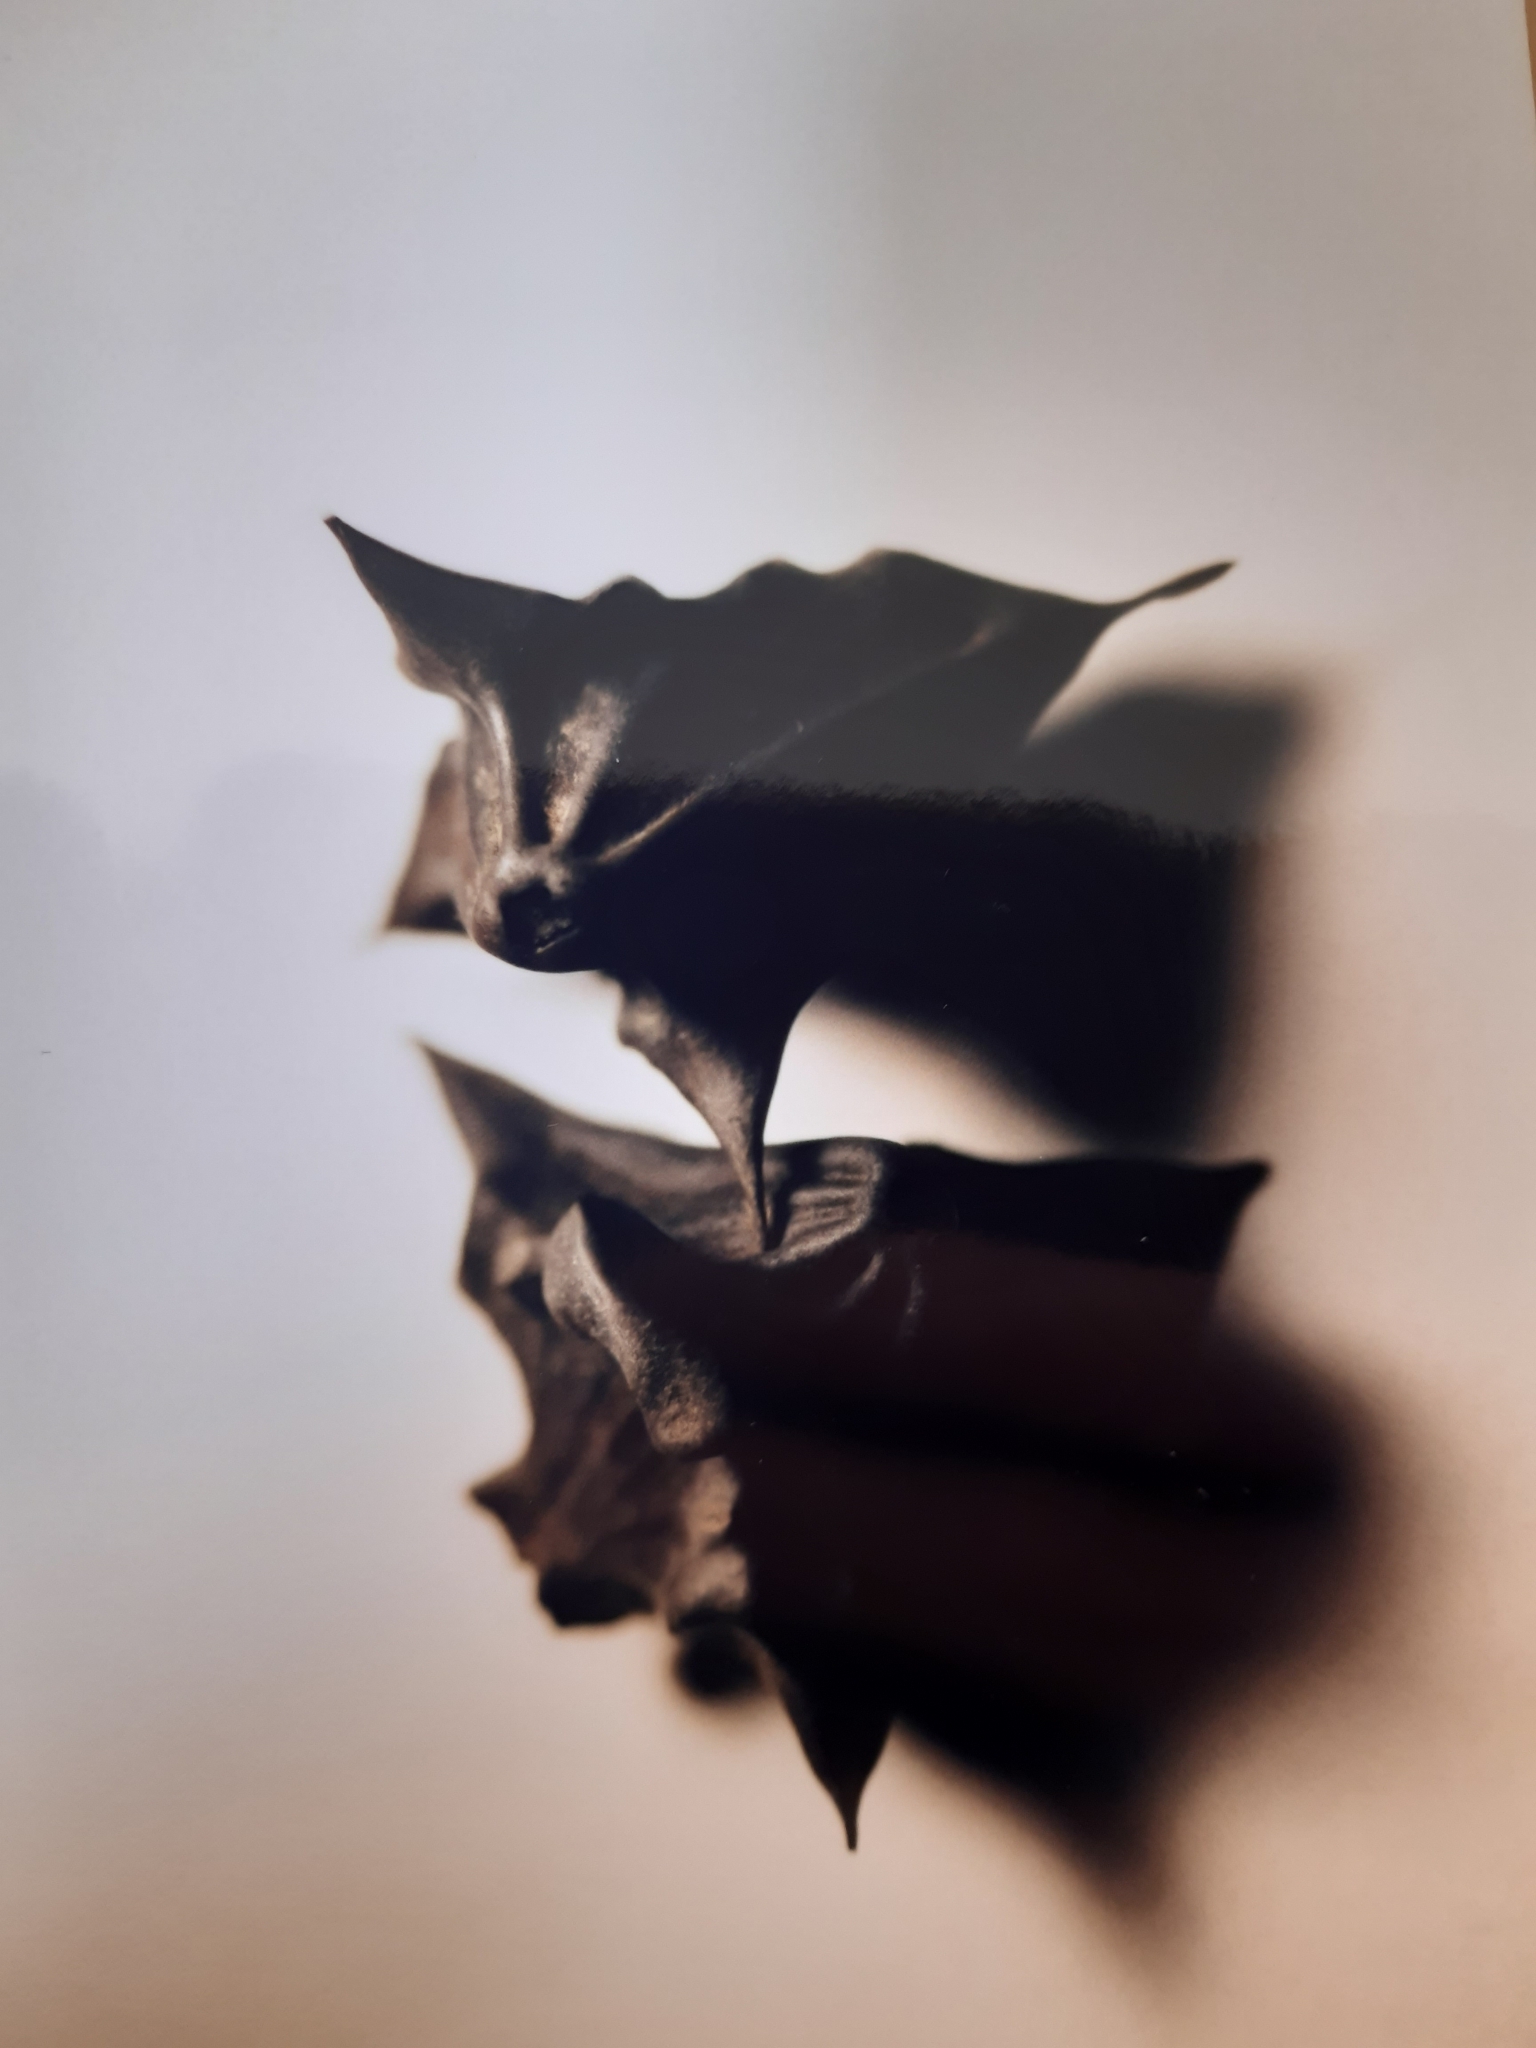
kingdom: Plantae
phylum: Tracheophyta
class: Magnoliopsida
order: Myrtales
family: Lythraceae
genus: Trapa
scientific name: Trapa natans
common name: Water chestnut
